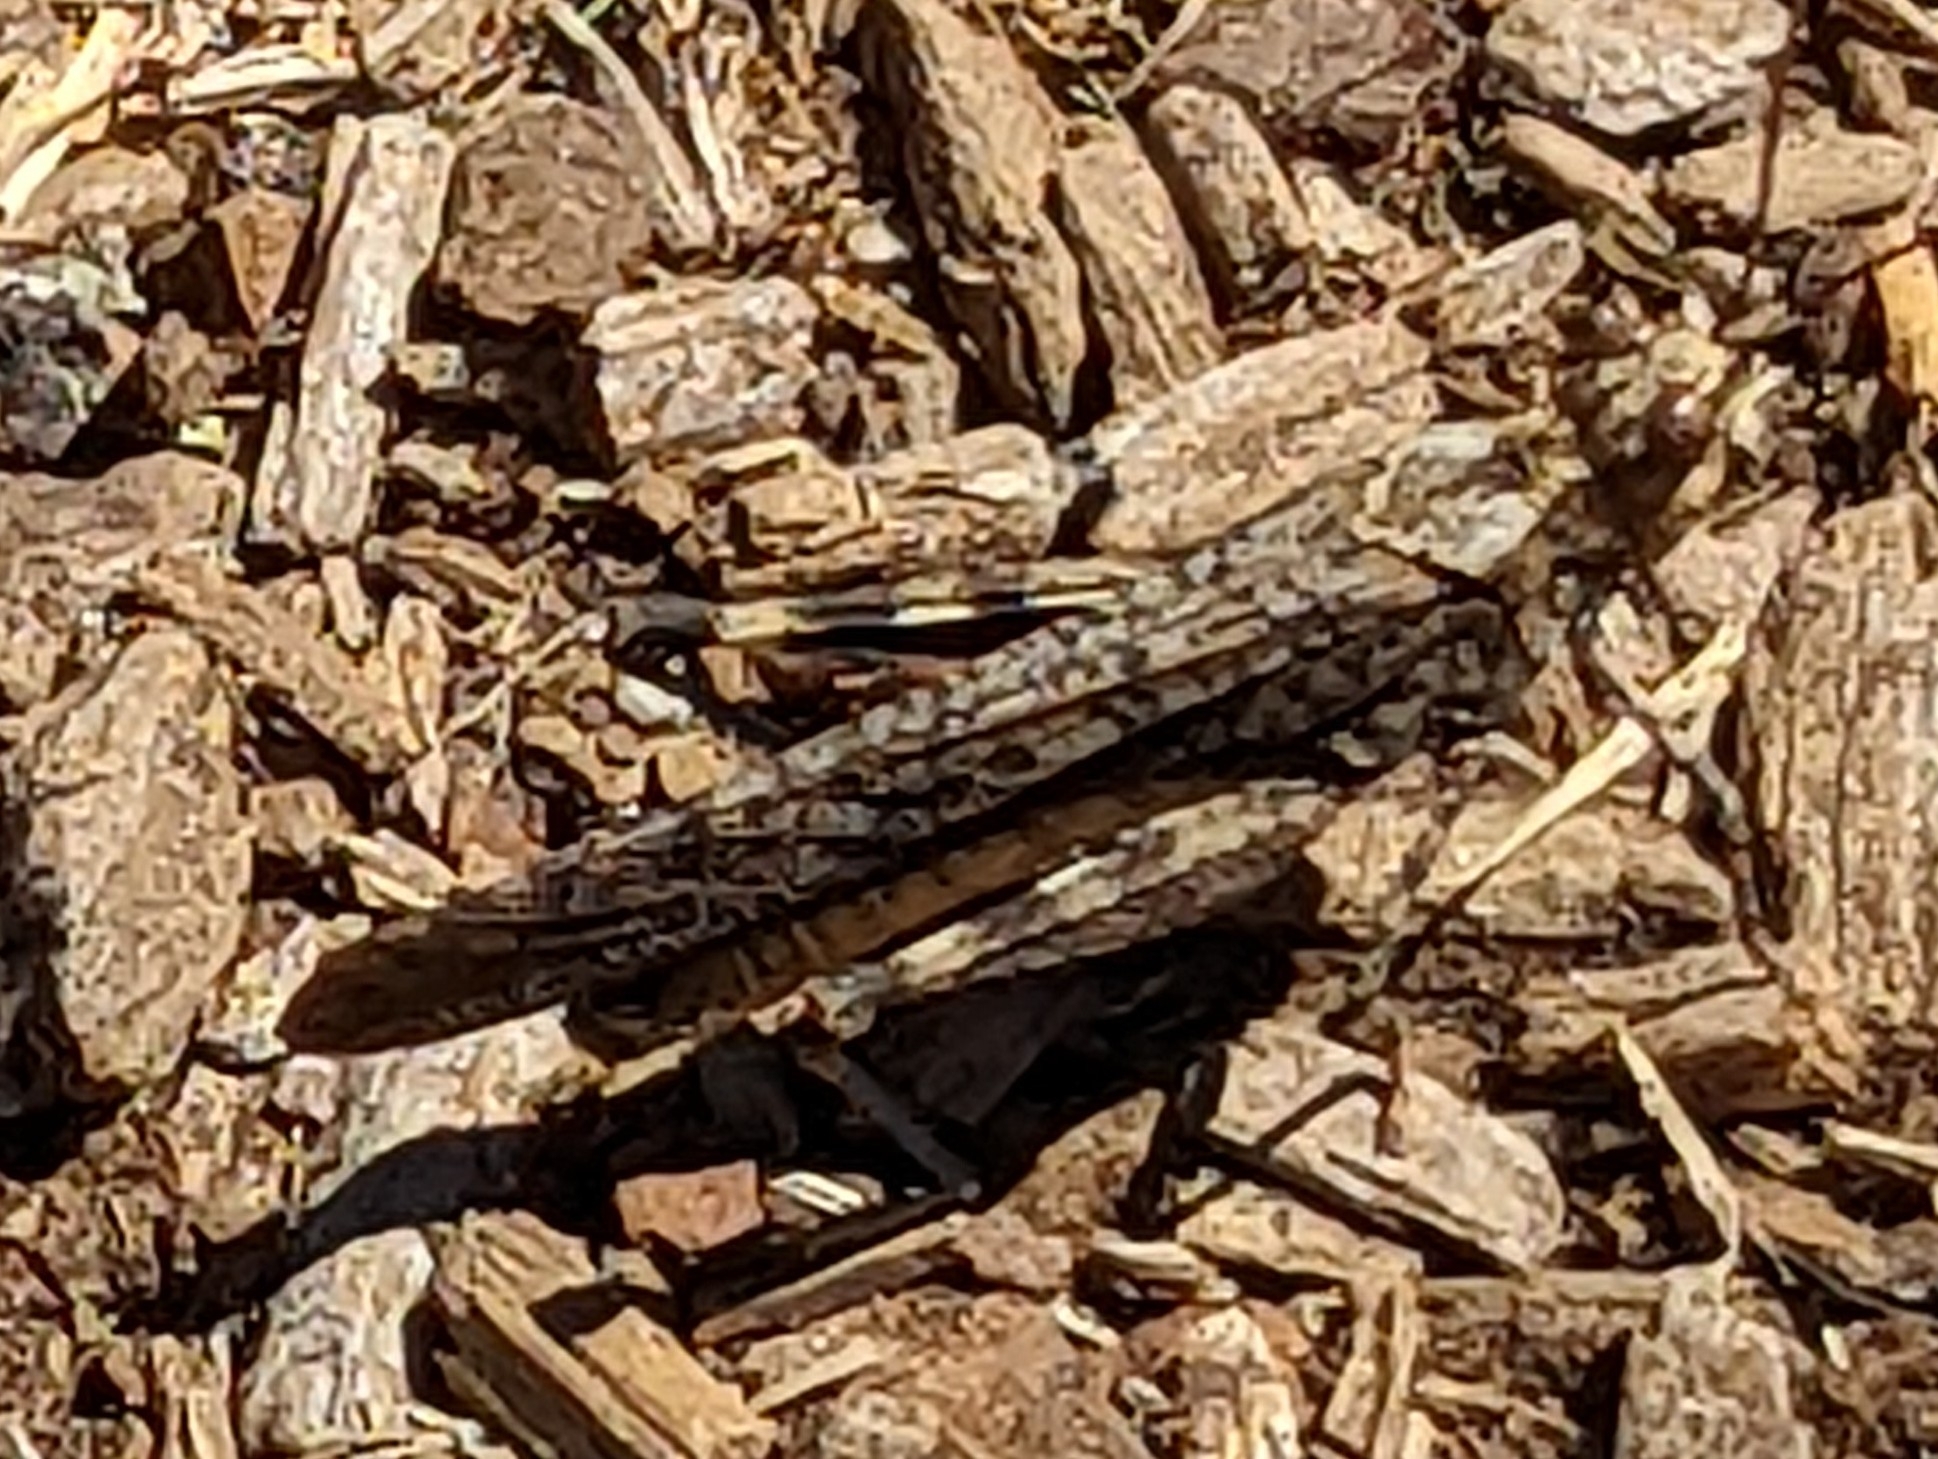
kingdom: Animalia
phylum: Arthropoda
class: Insecta
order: Orthoptera
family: Acrididae
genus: Trimerotropis
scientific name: Trimerotropis verruculata
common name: Crackling forest grasshopper
